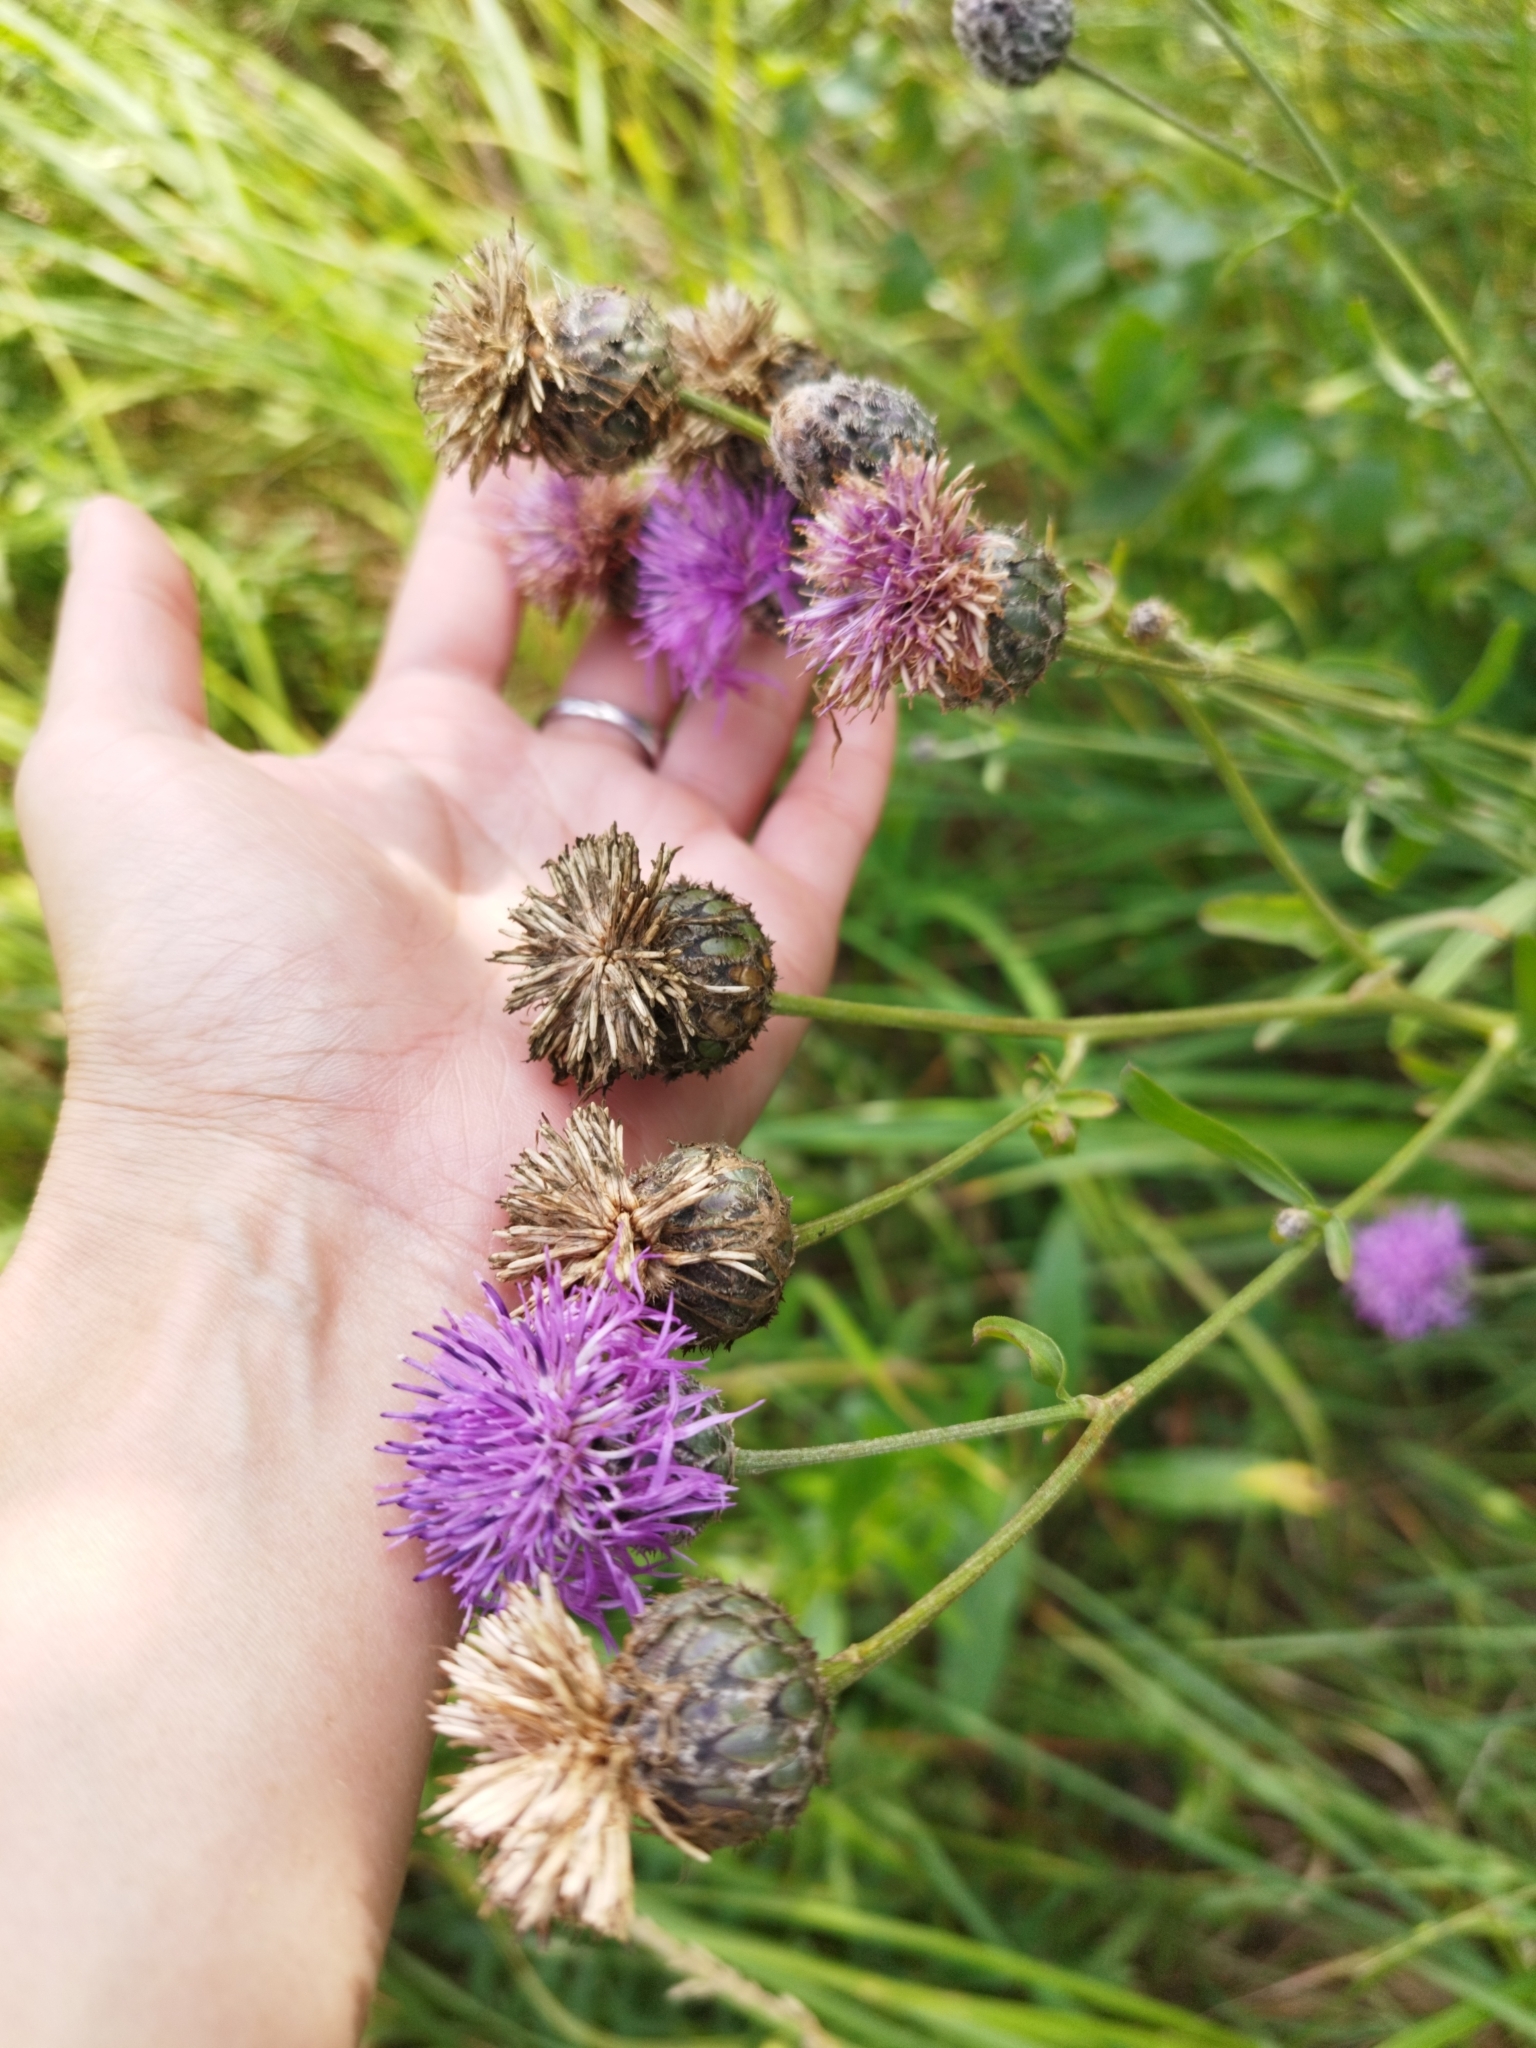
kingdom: Plantae
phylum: Tracheophyta
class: Magnoliopsida
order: Asterales
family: Asteraceae
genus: Centaurea
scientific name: Centaurea scabiosa
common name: Greater knapweed
